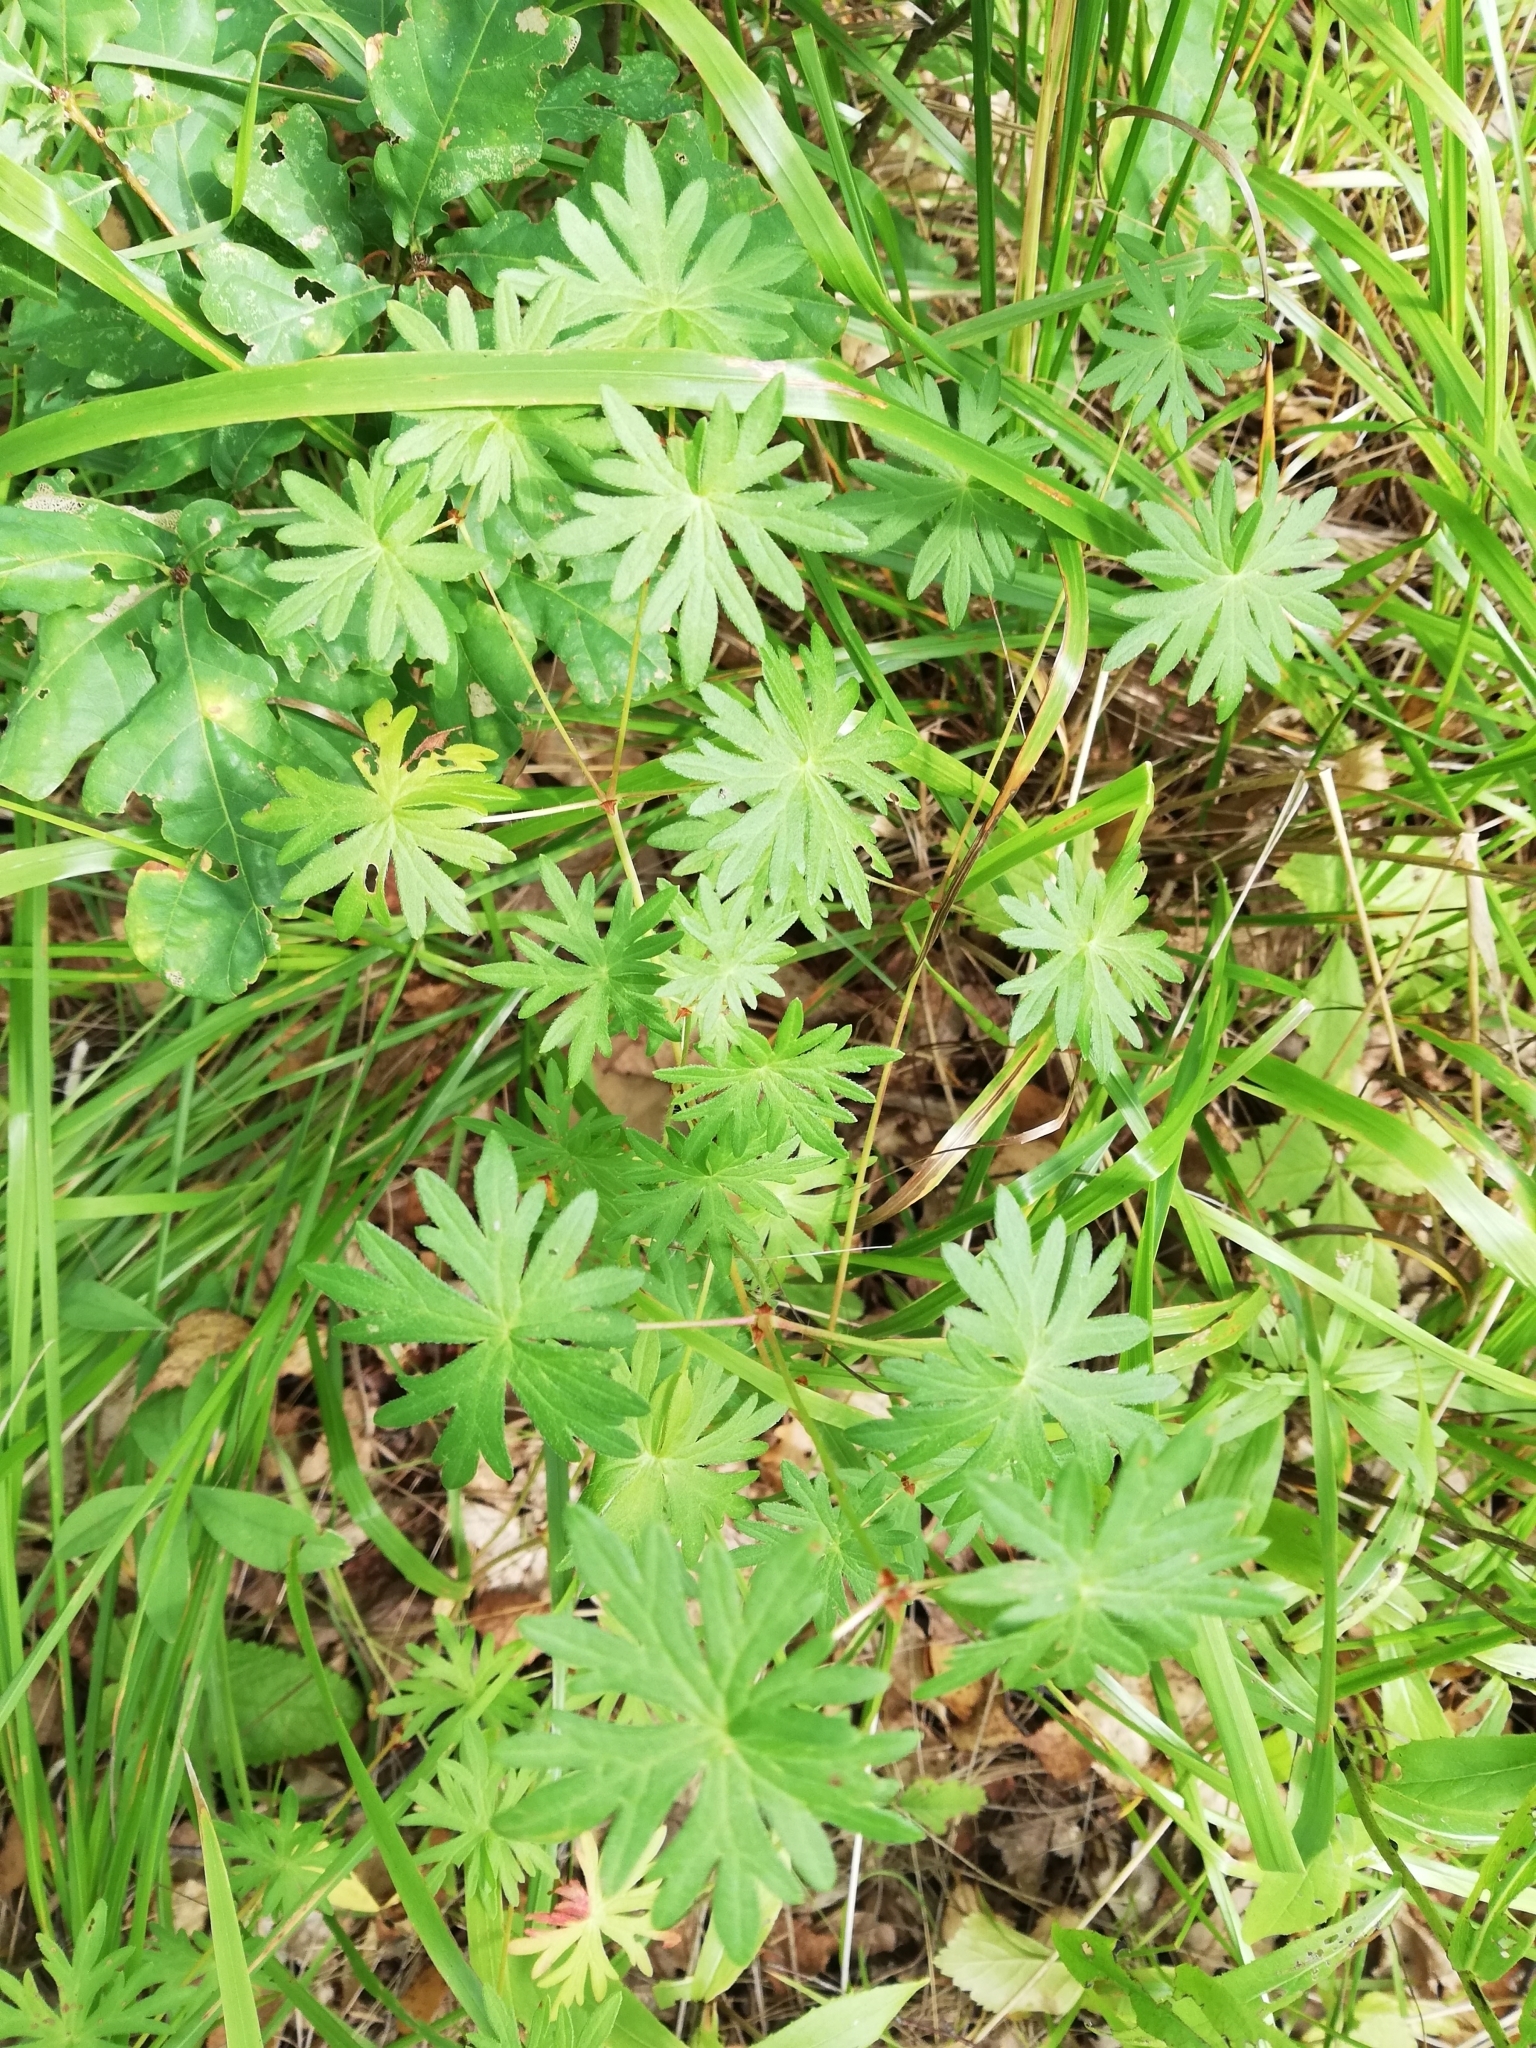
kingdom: Plantae
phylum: Tracheophyta
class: Magnoliopsida
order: Geraniales
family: Geraniaceae
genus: Geranium
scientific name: Geranium sanguineum
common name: Bloody crane's-bill
